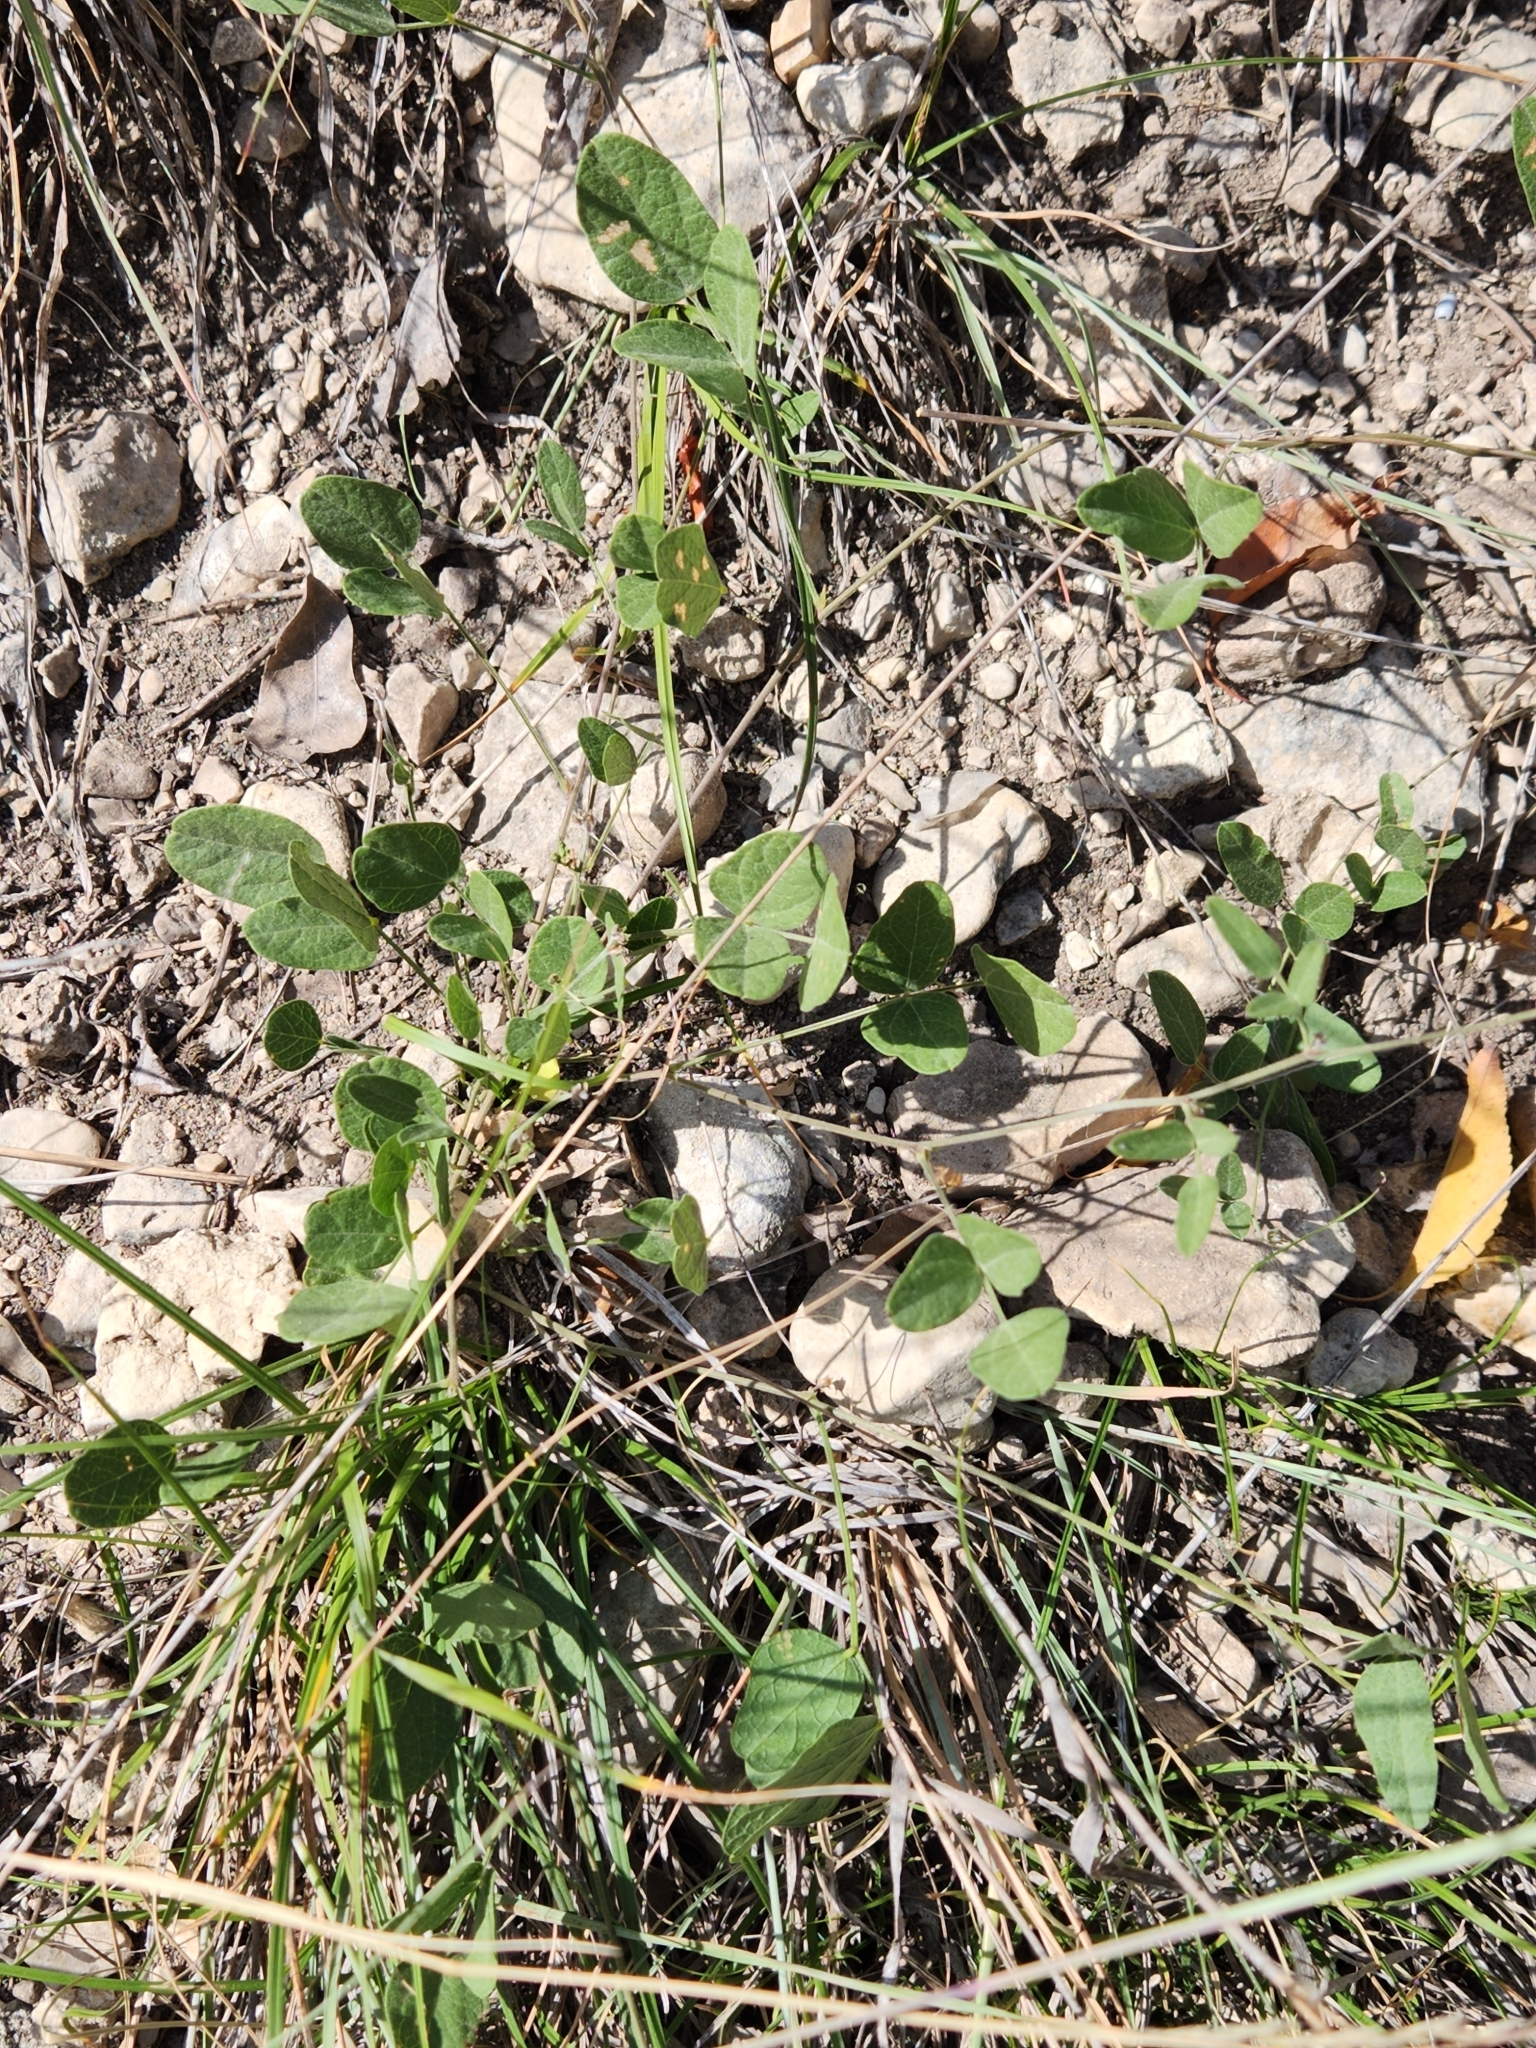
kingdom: Plantae
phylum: Tracheophyta
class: Magnoliopsida
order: Fabales
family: Fabaceae
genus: Rhynchosia
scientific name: Rhynchosia senna
